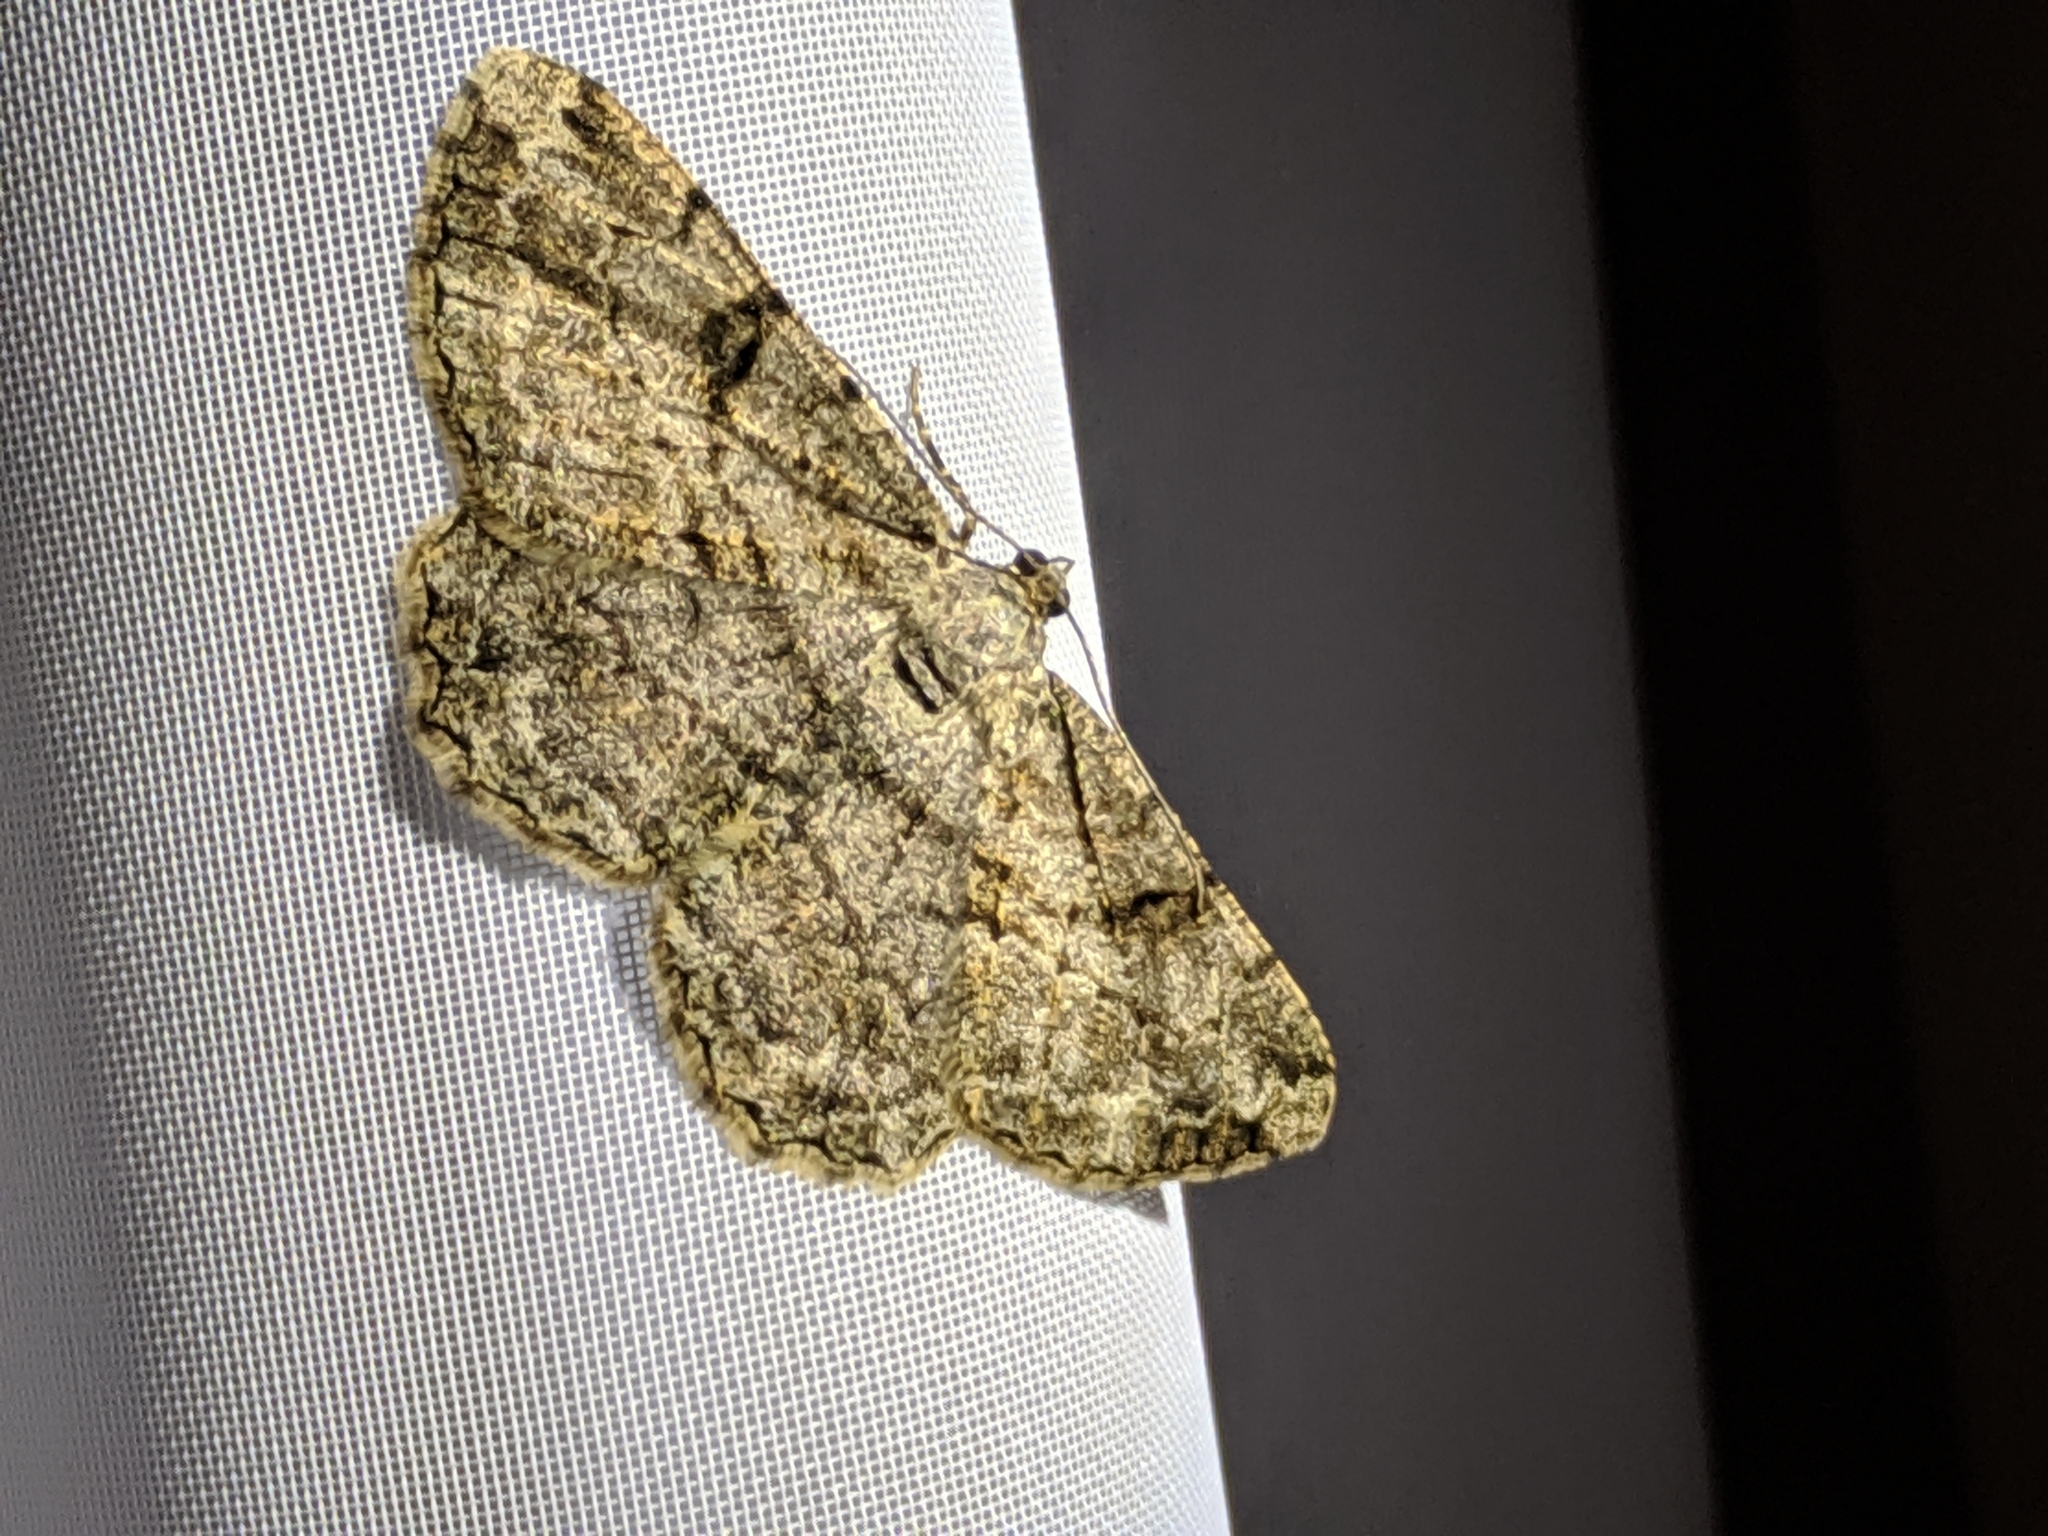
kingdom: Animalia
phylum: Arthropoda
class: Insecta
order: Lepidoptera
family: Geometridae
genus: Peribatodes
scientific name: Peribatodes rhomboidaria
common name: Willow beauty
